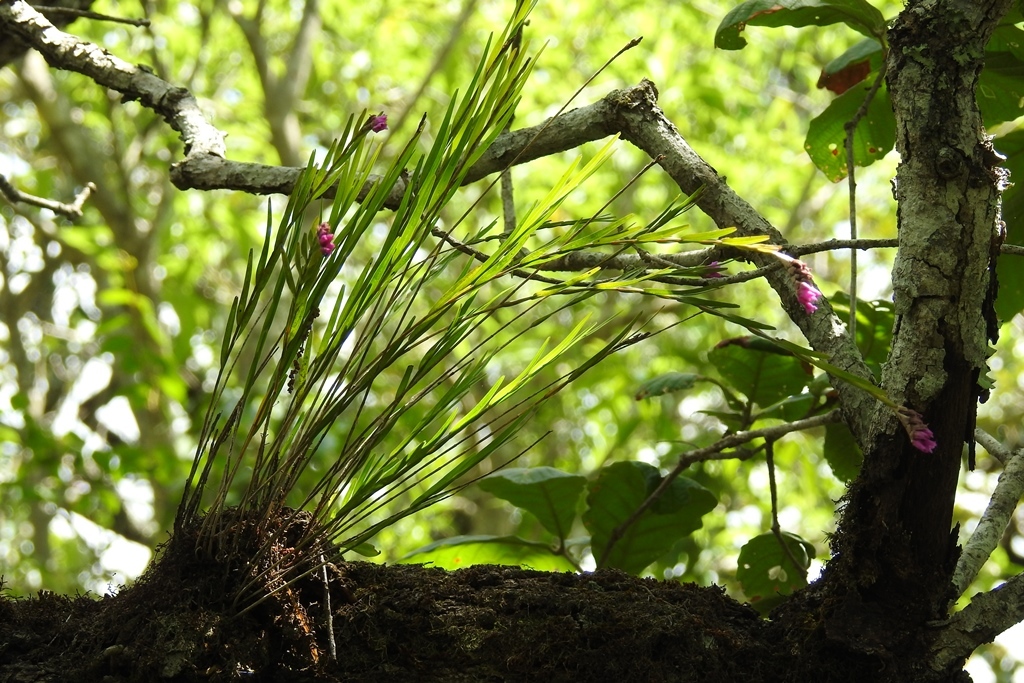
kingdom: Plantae
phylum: Tracheophyta
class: Liliopsida
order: Asparagales
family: Orchidaceae
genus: Isochilus
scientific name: Isochilus carnosiflorus
